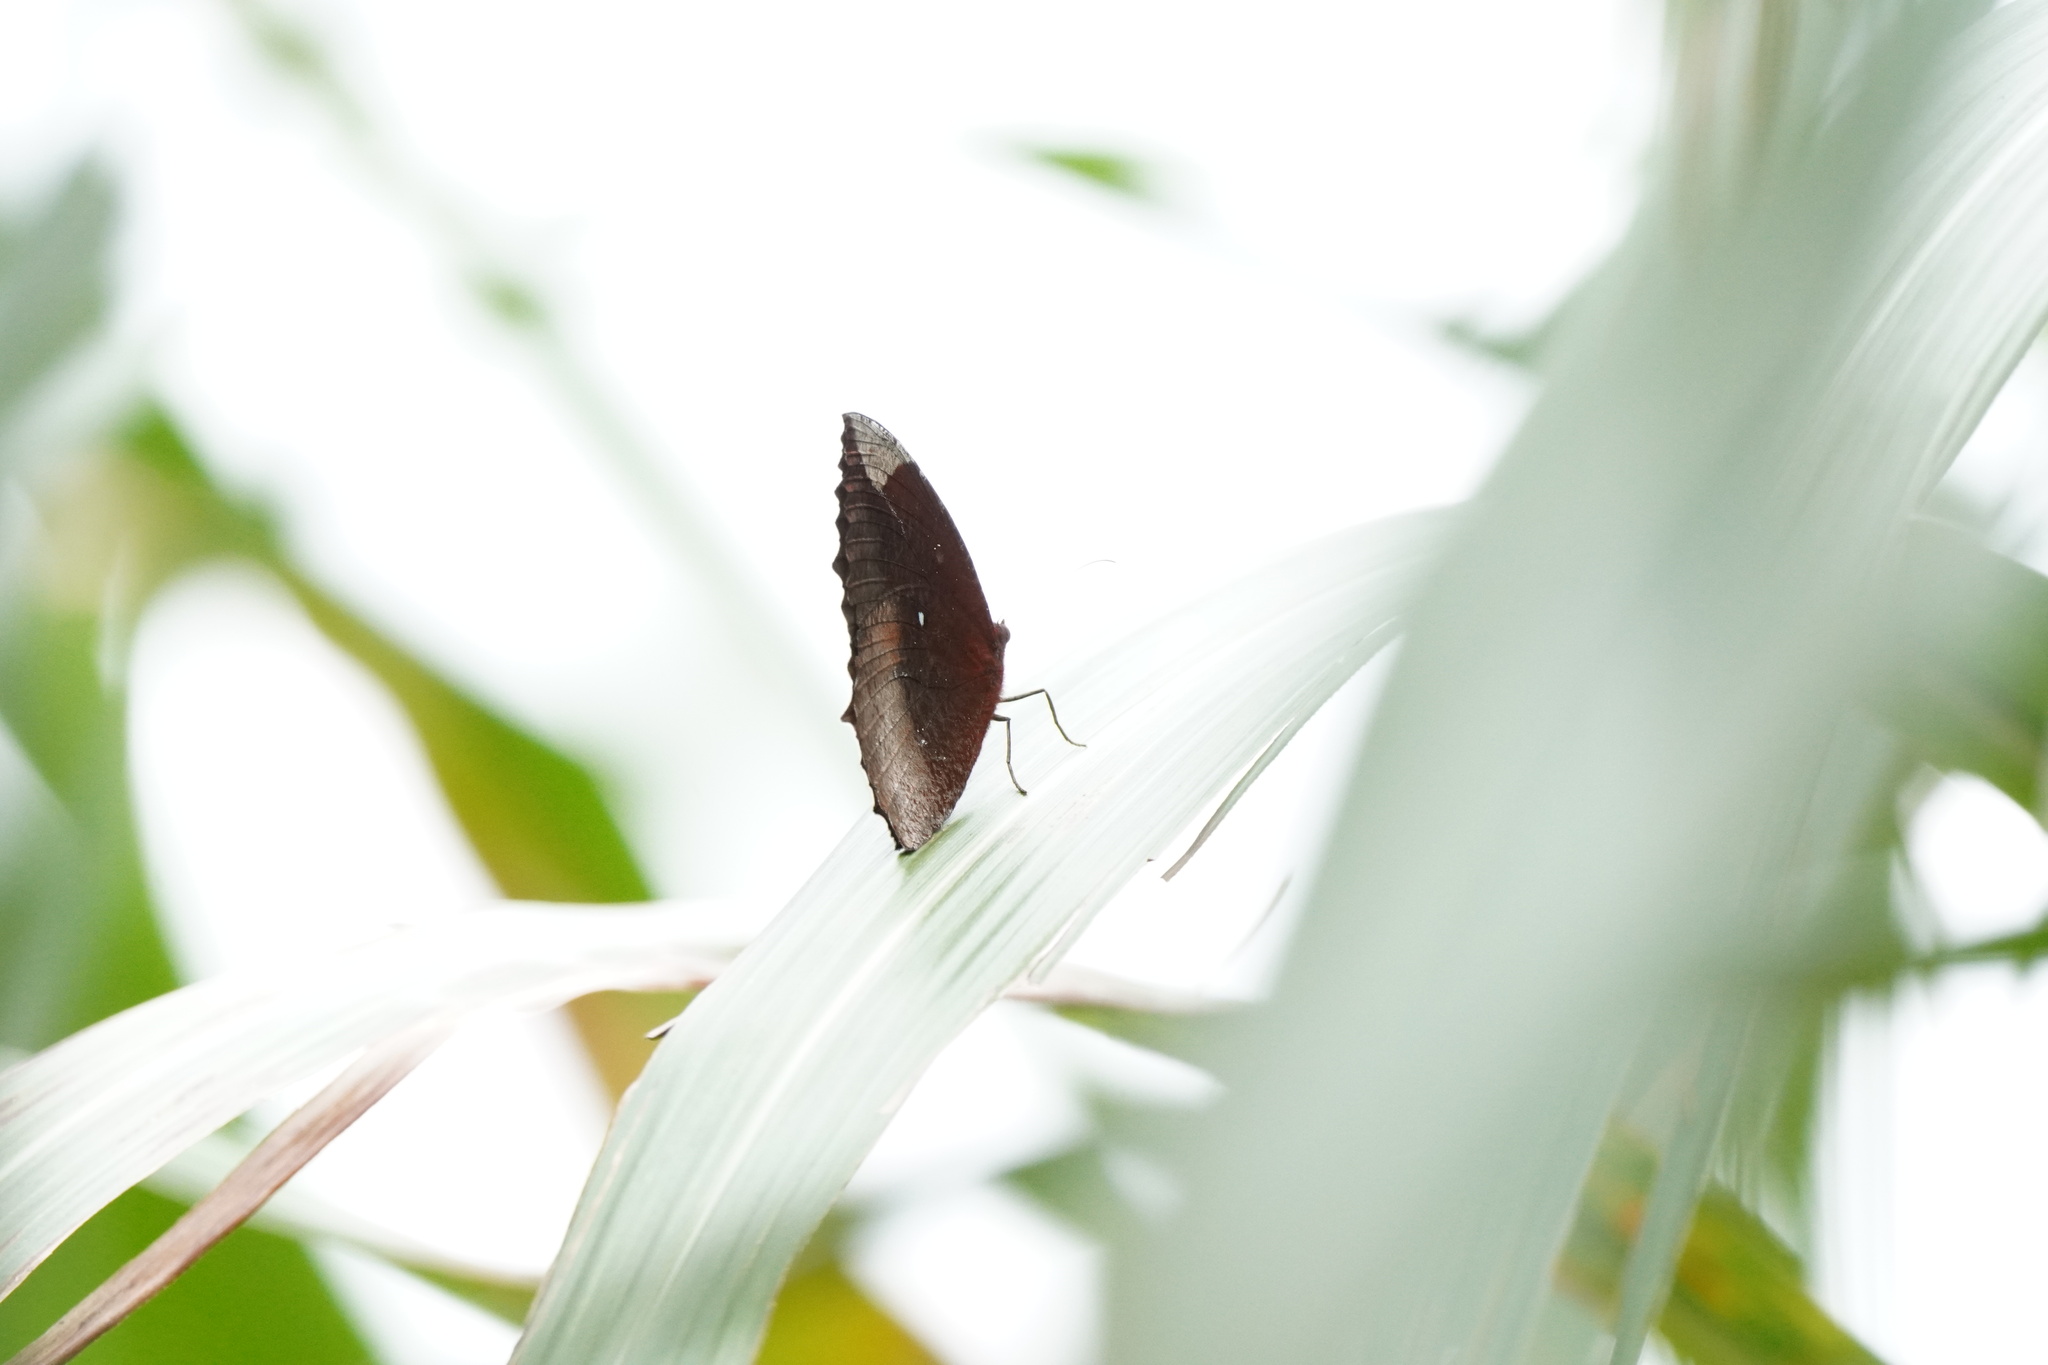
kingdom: Animalia
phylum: Arthropoda
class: Insecta
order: Lepidoptera
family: Nymphalidae
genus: Elymnias
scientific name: Elymnias hypermnestra
